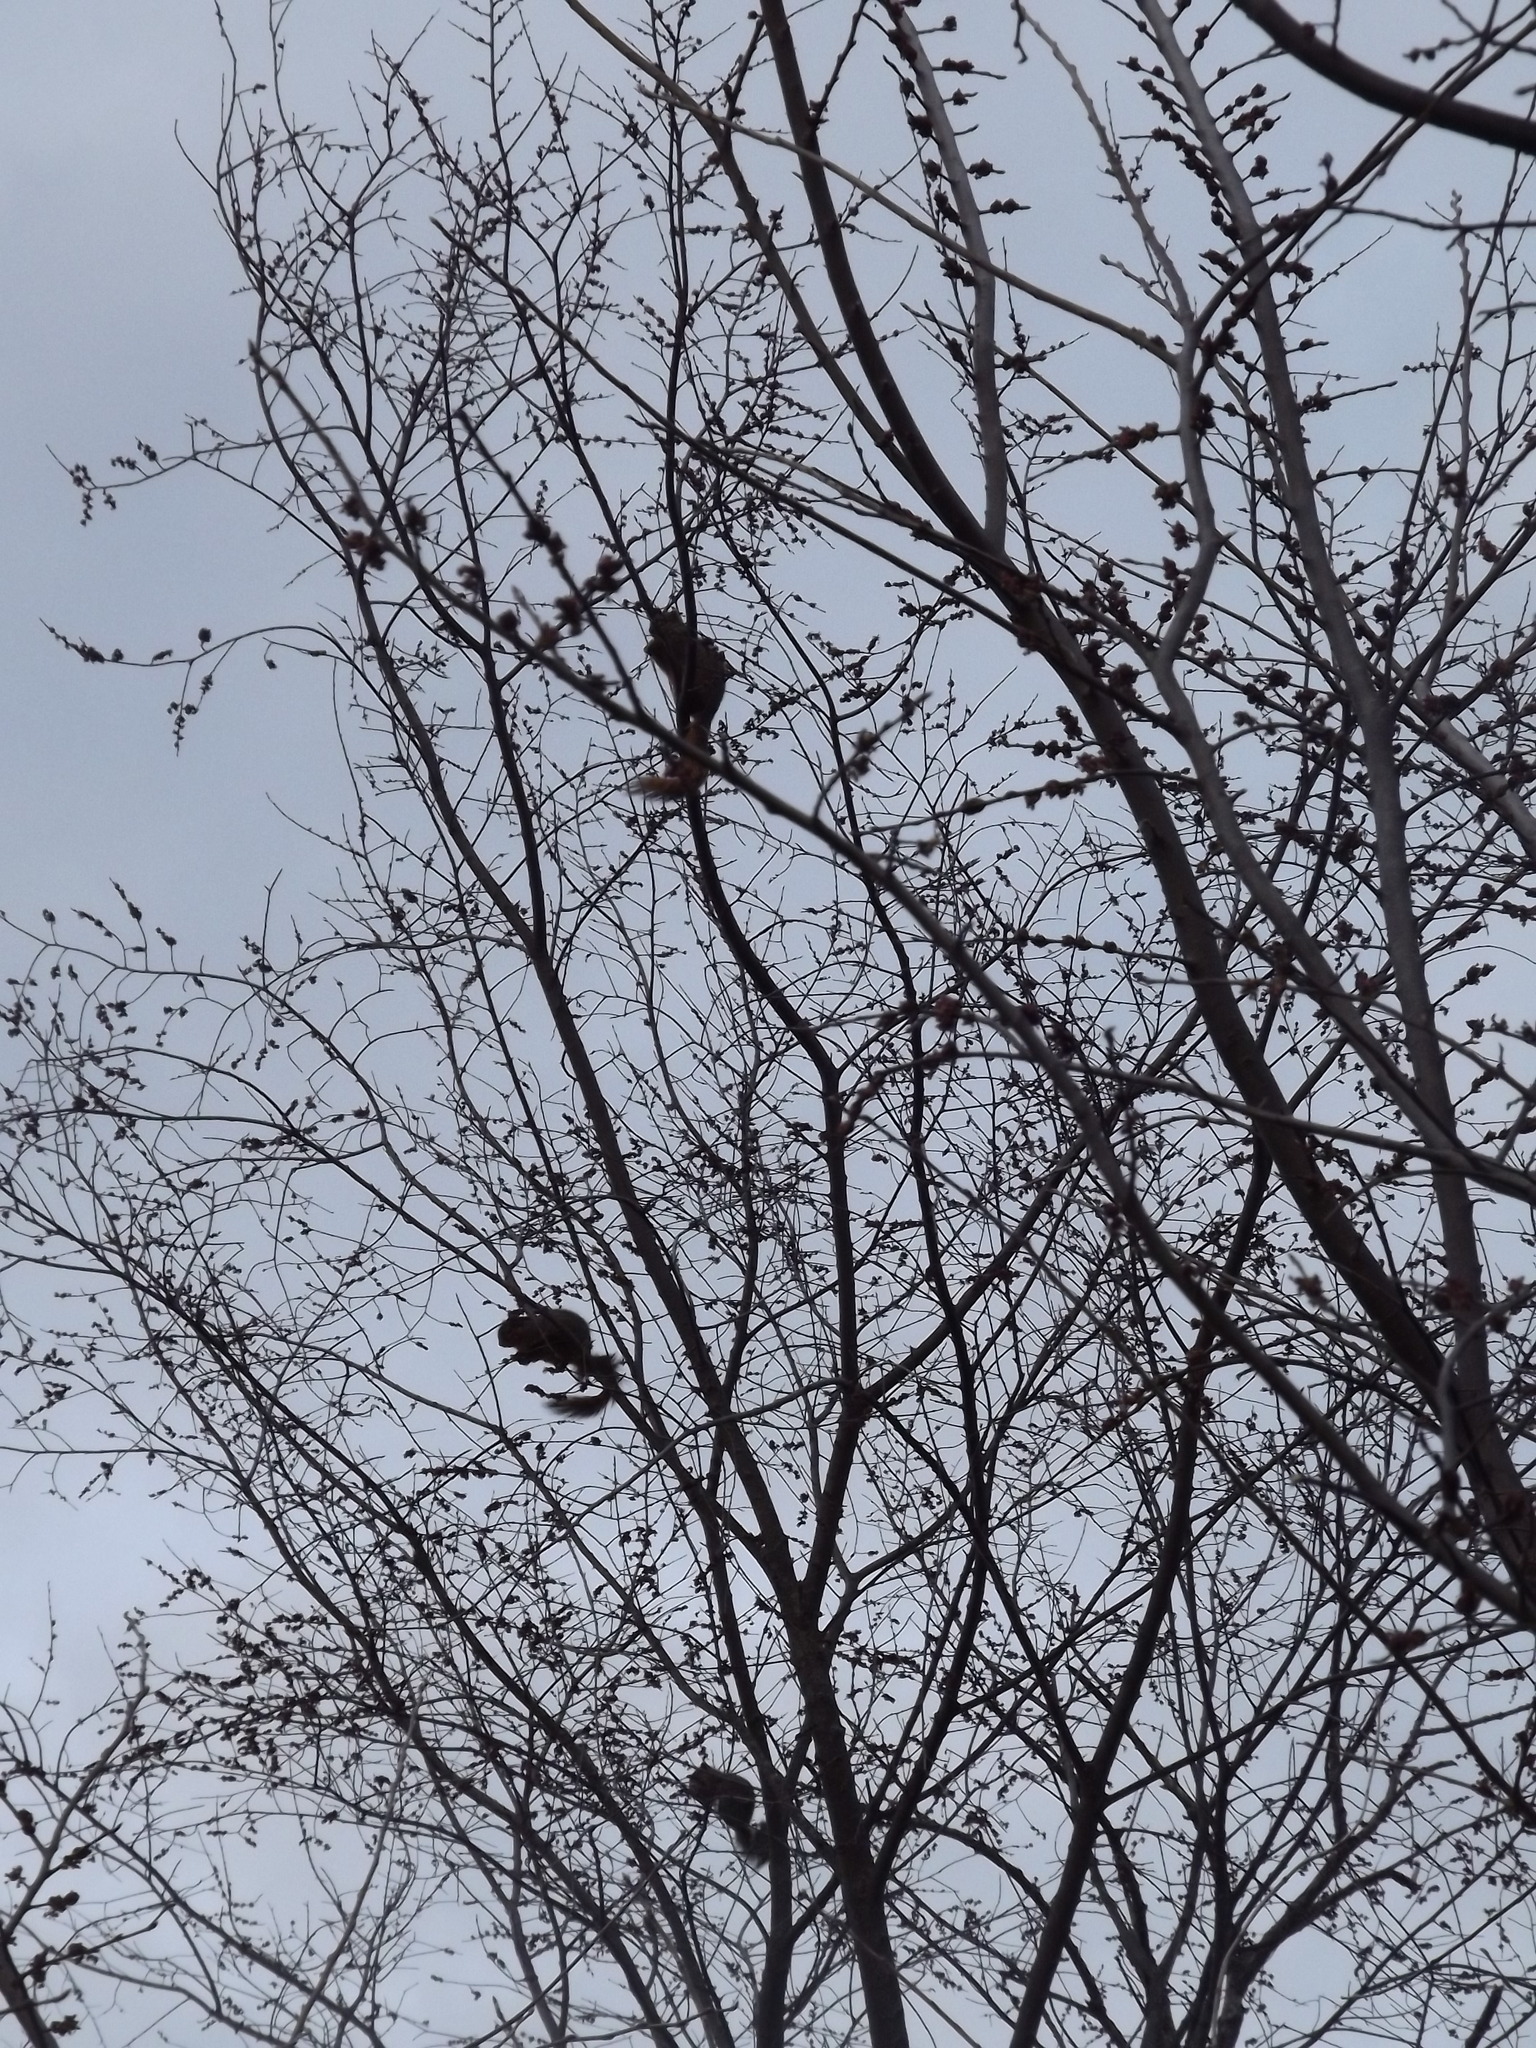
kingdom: Animalia
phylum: Chordata
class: Mammalia
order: Rodentia
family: Sciuridae
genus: Sciurus
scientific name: Sciurus niger
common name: Fox squirrel
